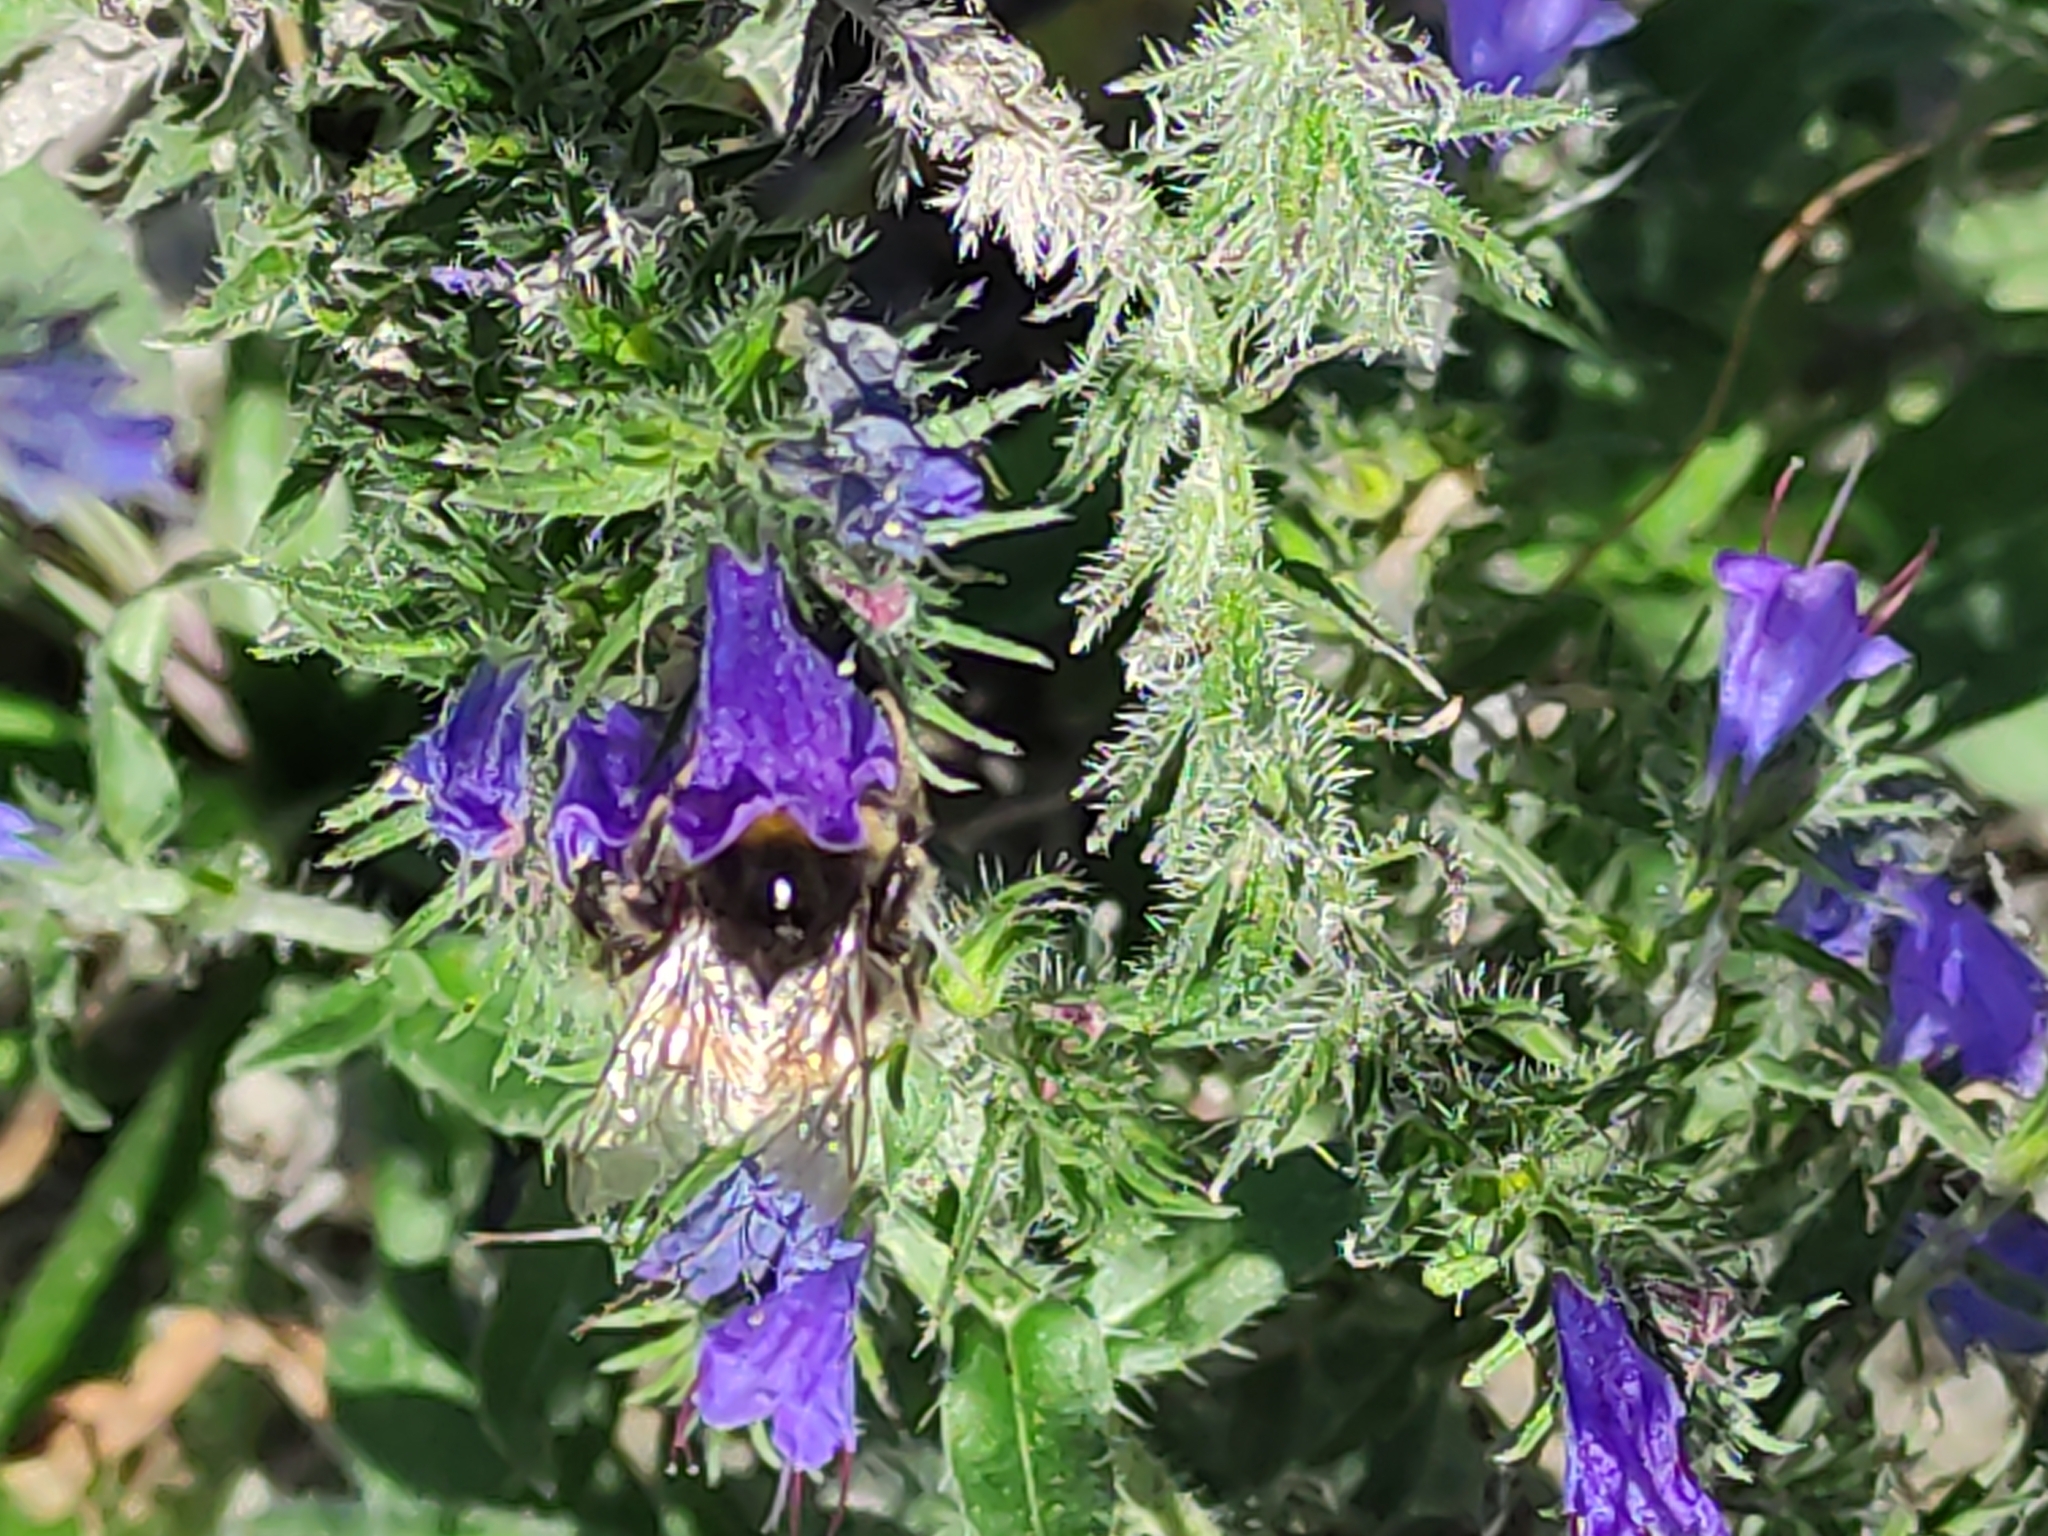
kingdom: Animalia
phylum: Arthropoda
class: Insecta
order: Hymenoptera
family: Apidae
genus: Bombus
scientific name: Bombus terrestris
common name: Buff-tailed bumblebee
